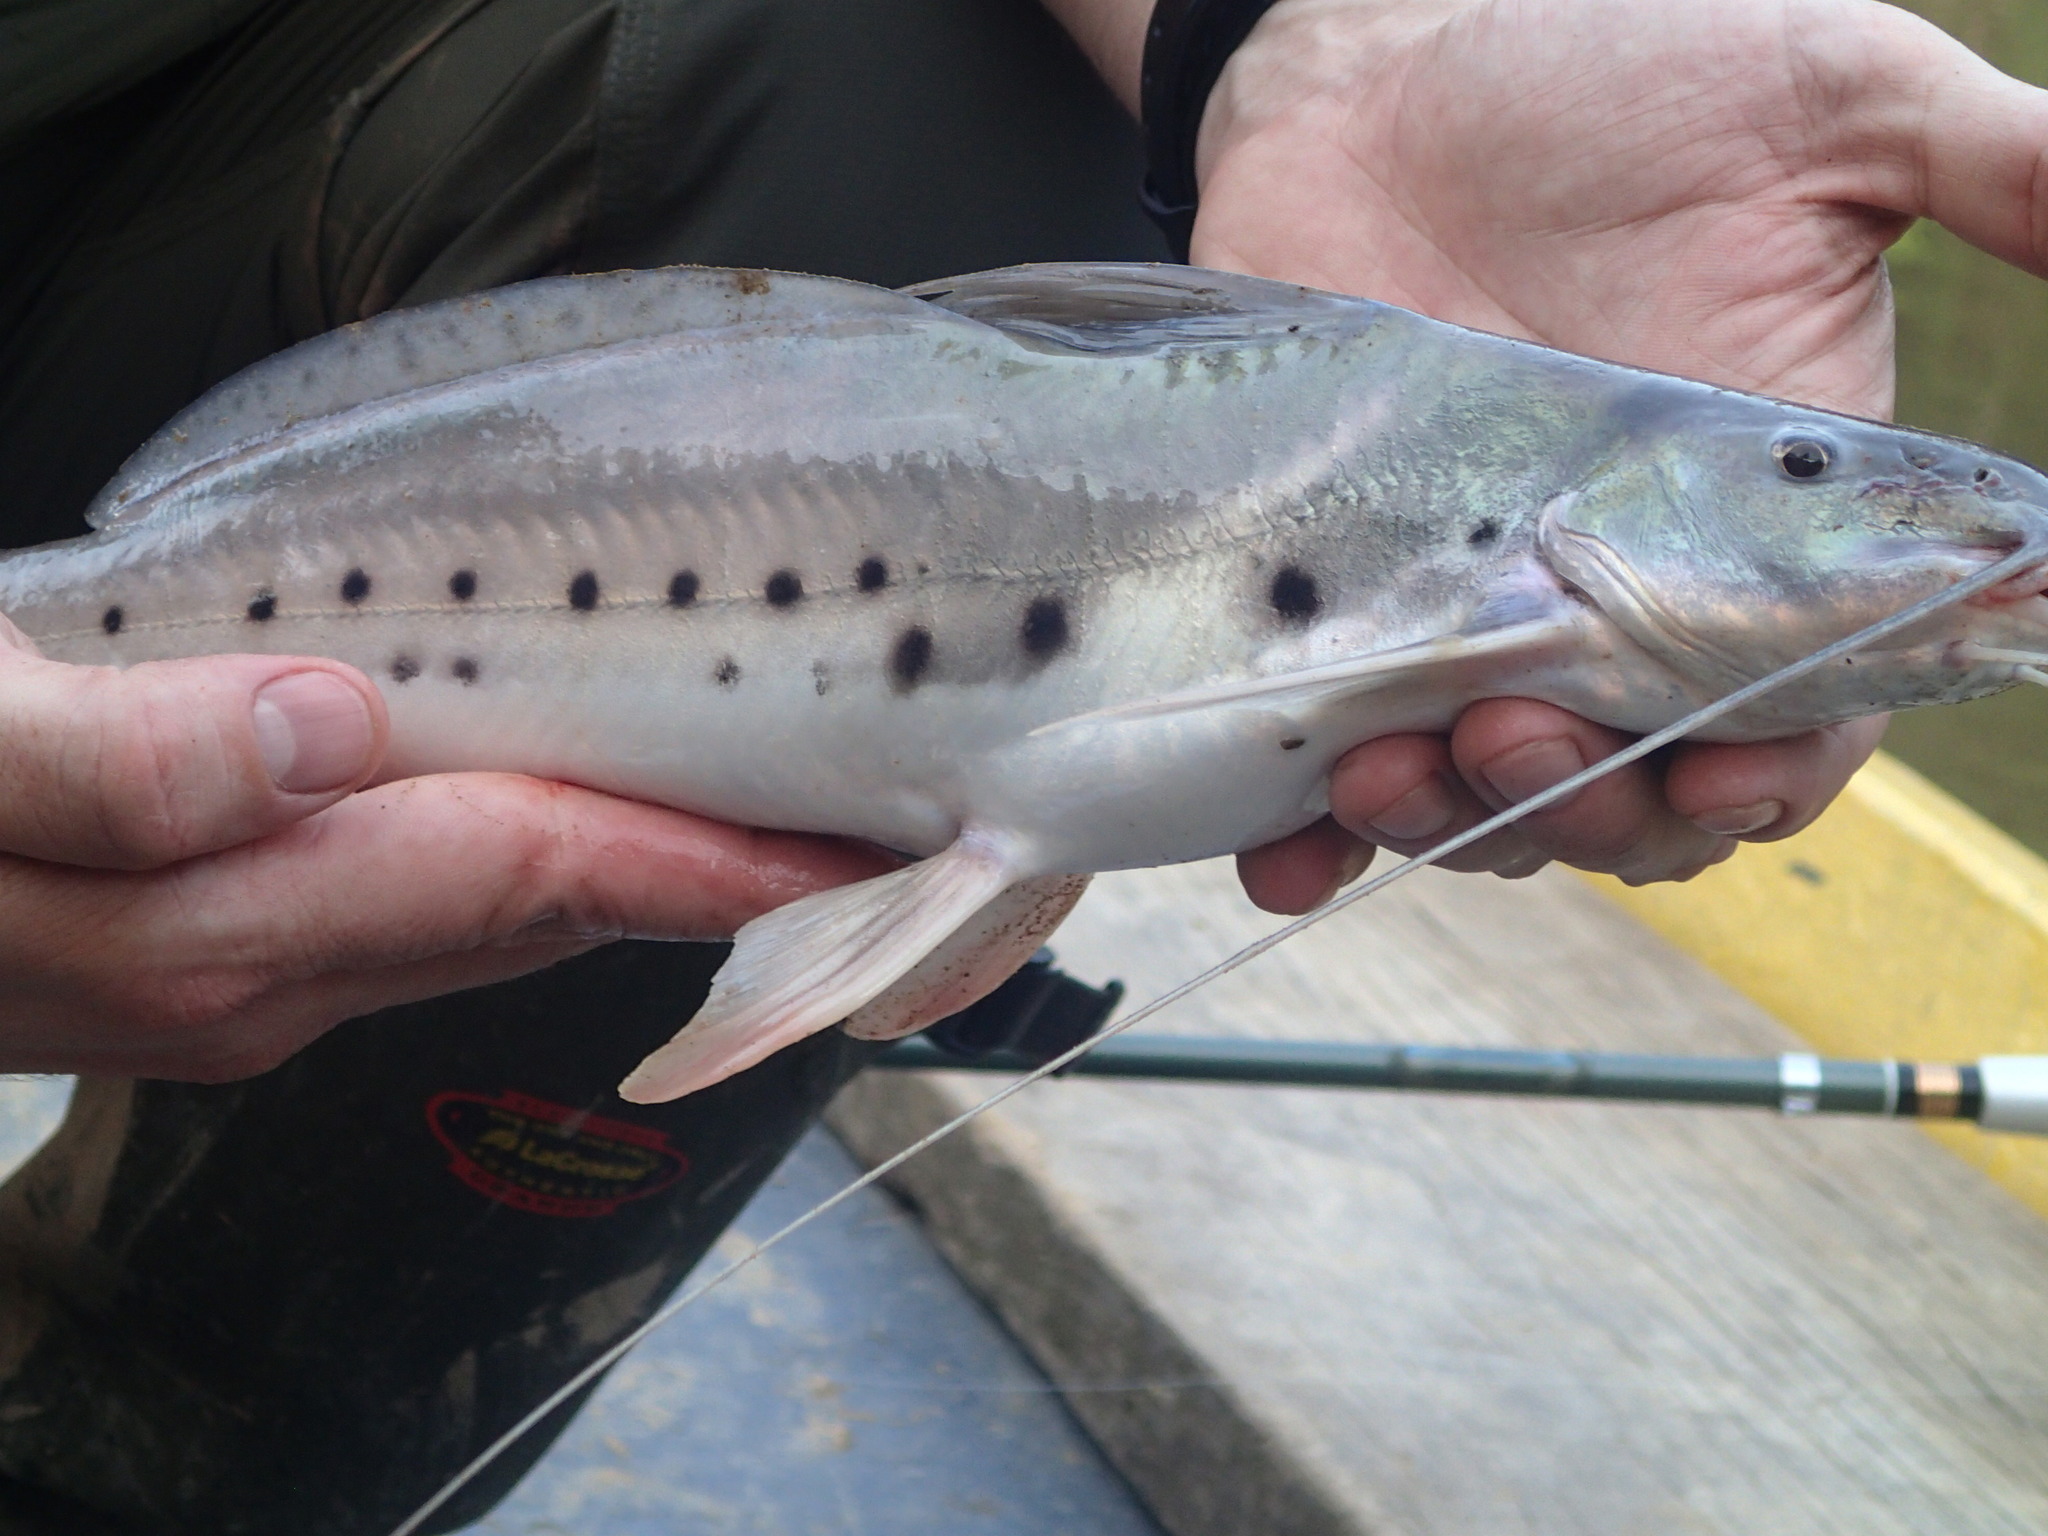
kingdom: Animalia
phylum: Chordata
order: Siluriformes
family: Pimelodidae
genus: Calophysus
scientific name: Calophysus macropterus
